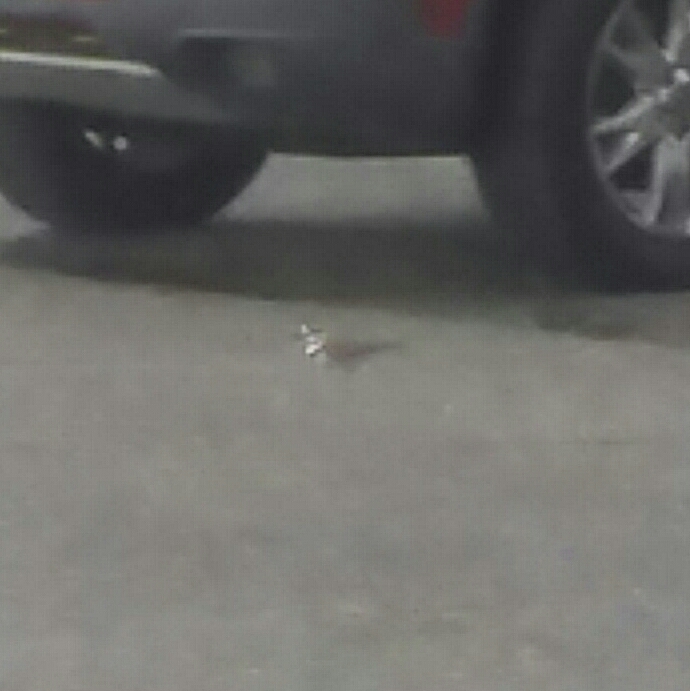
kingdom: Animalia
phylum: Chordata
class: Aves
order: Charadriiformes
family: Charadriidae
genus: Charadrius
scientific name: Charadrius vociferus
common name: Killdeer
